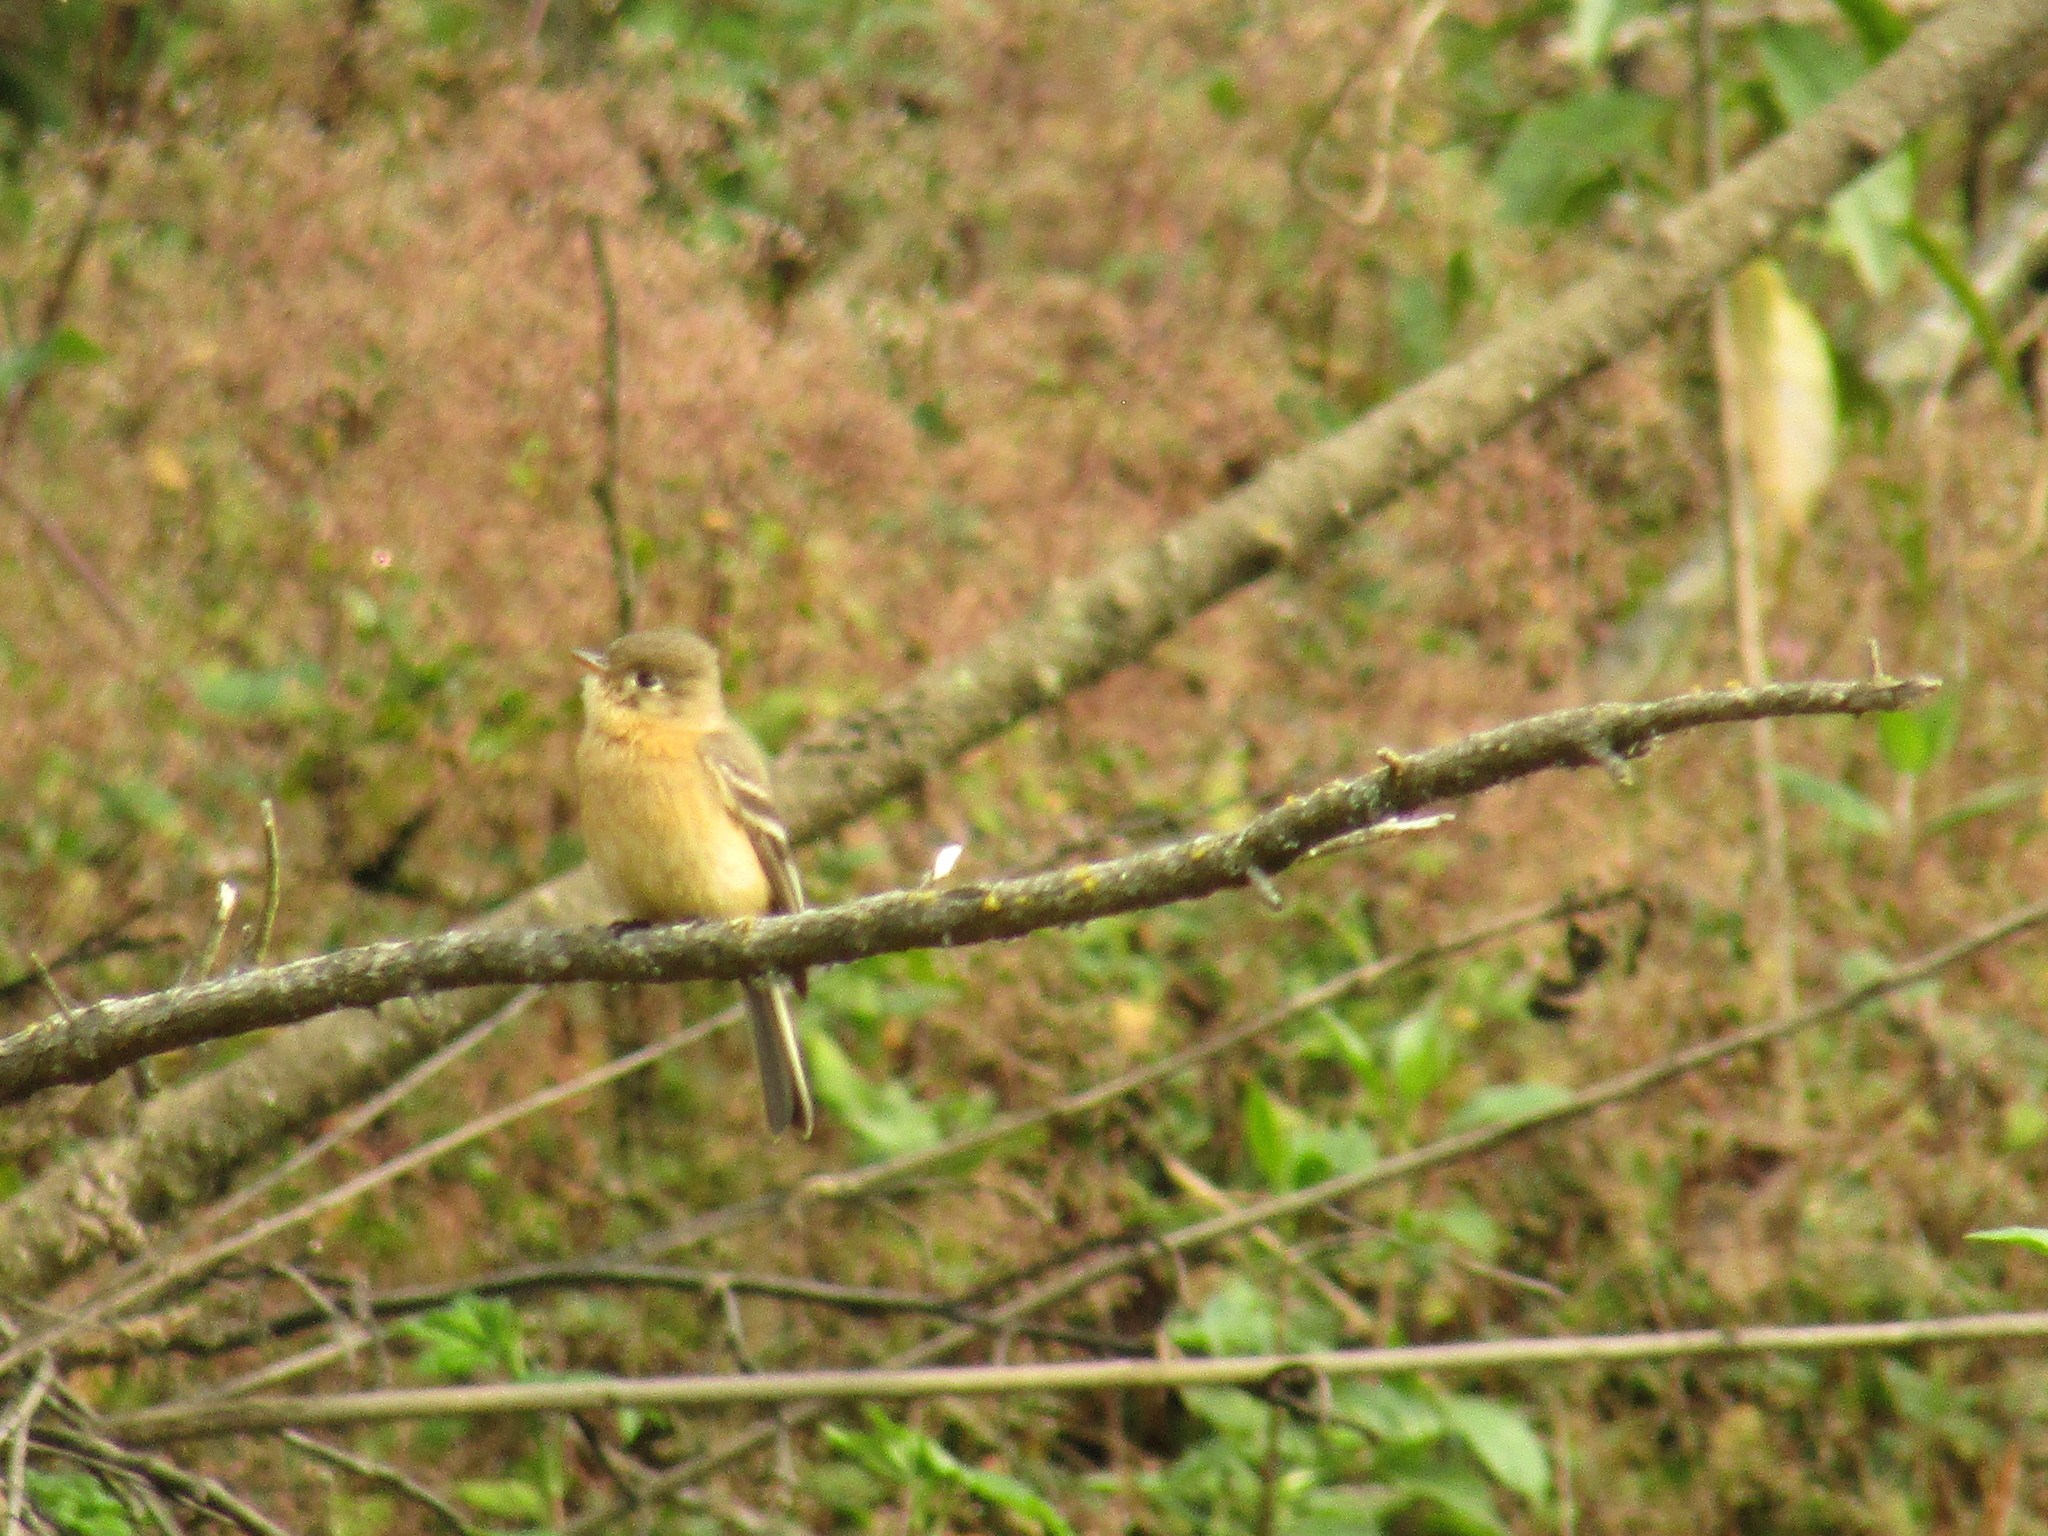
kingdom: Animalia
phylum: Chordata
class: Aves
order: Passeriformes
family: Tyrannidae
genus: Empidonax
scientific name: Empidonax fulvifrons
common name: Buff-breasted flycatcher
